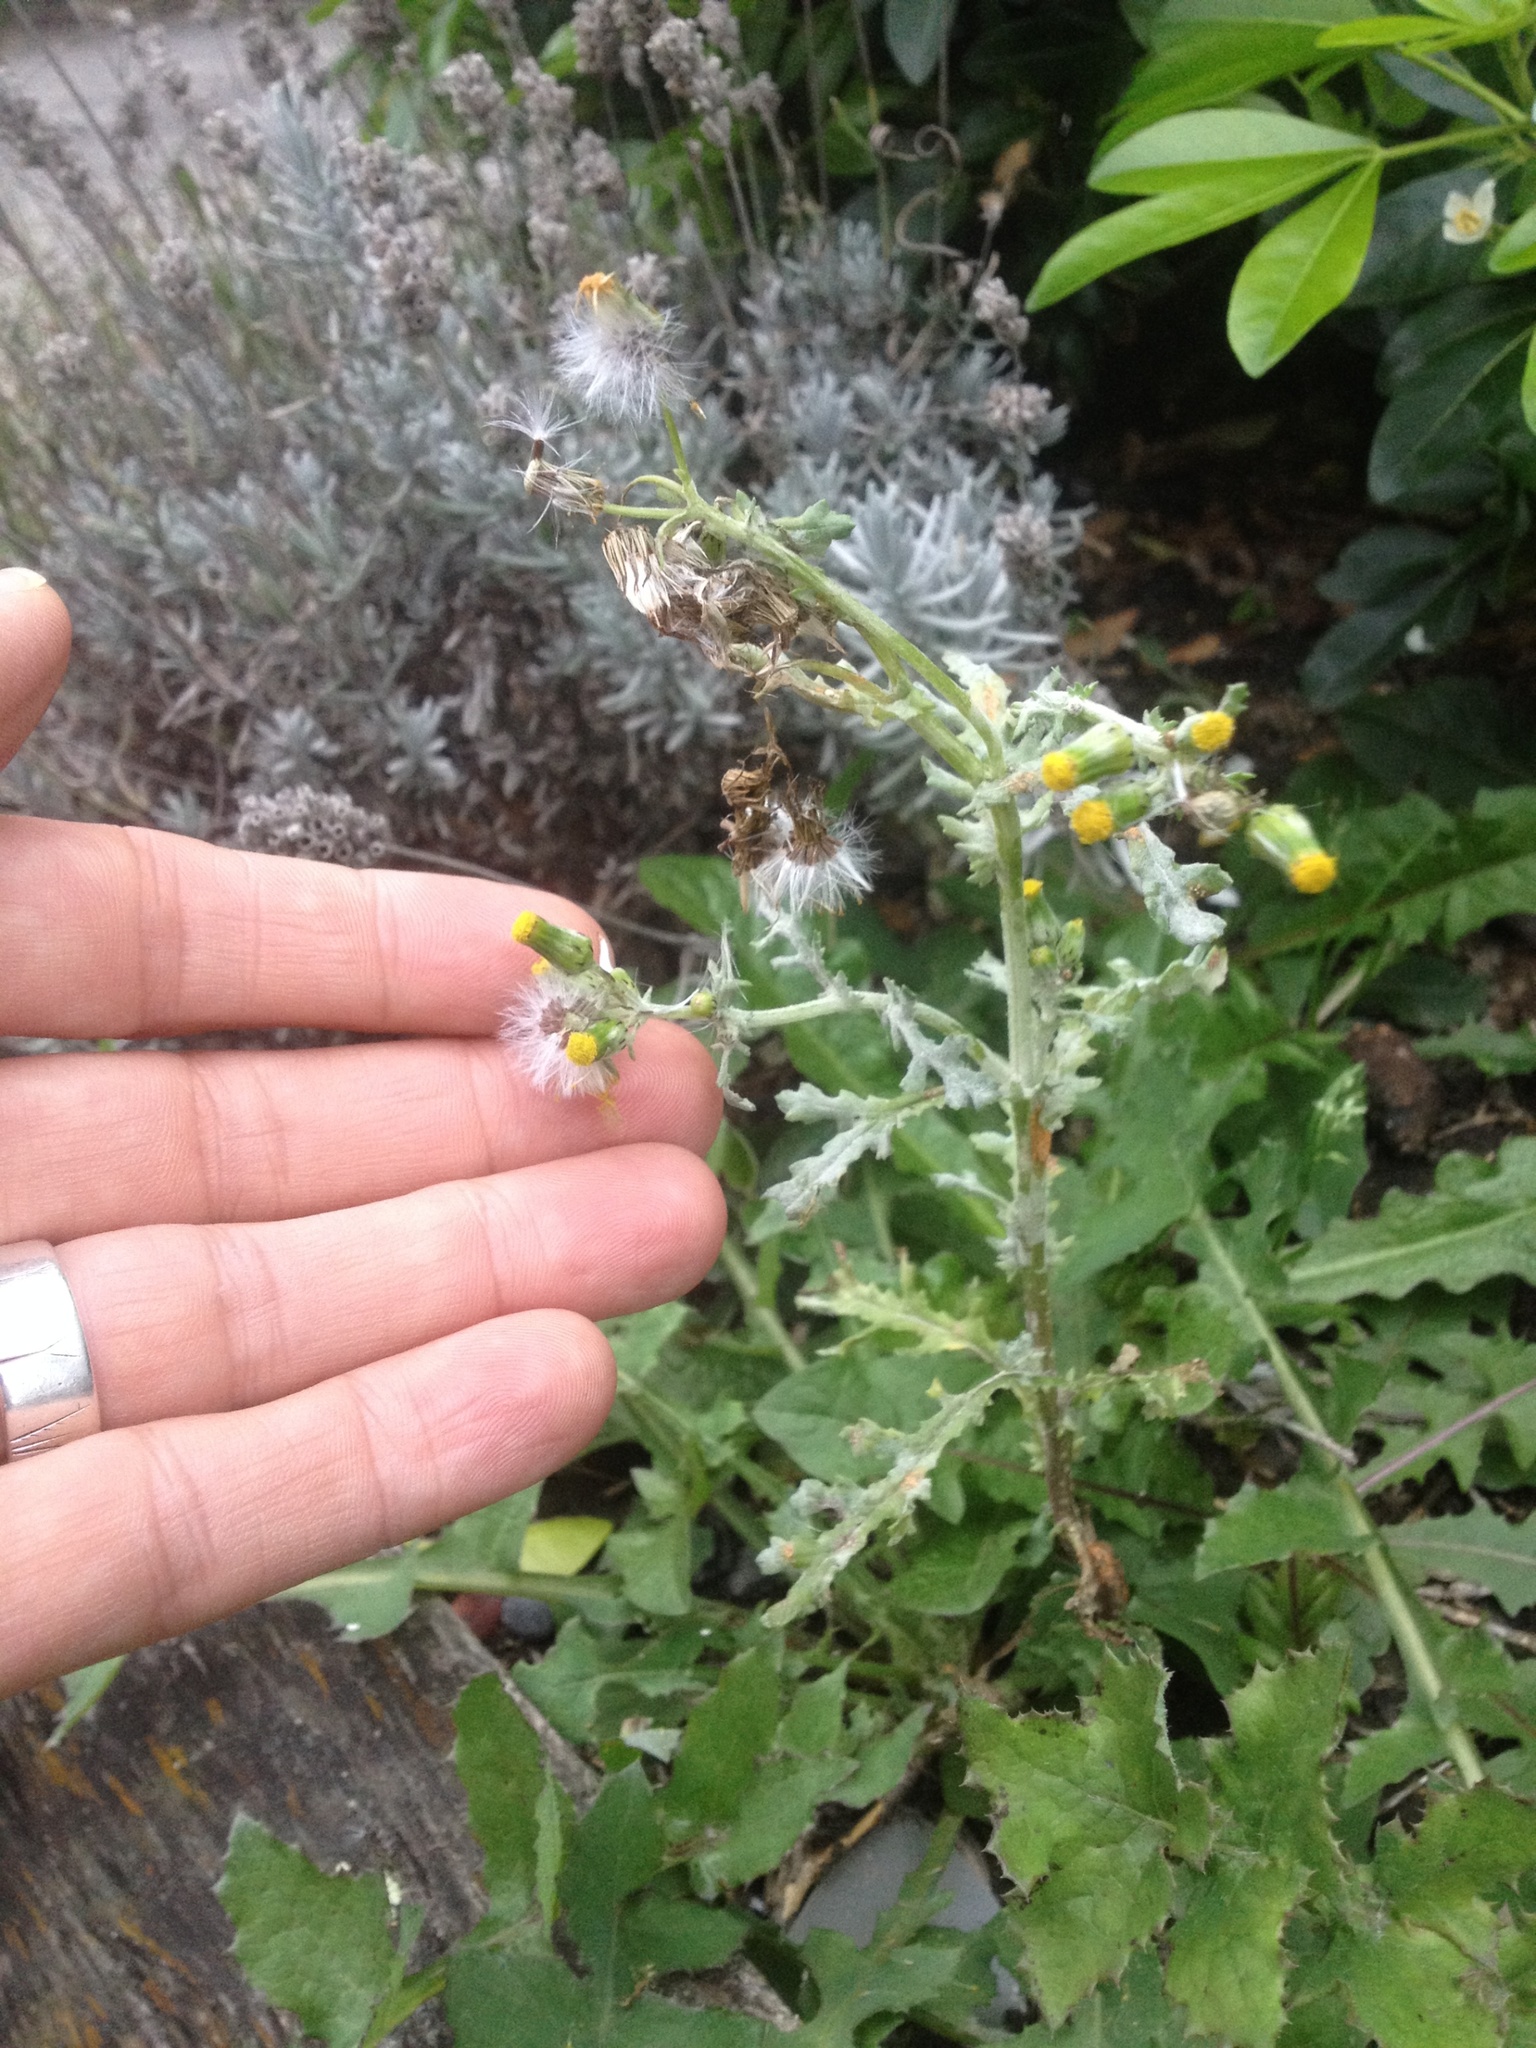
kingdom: Fungi
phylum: Ascomycota
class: Leotiomycetes
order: Helotiales
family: Erysiphaceae
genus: Golovinomyces
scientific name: Golovinomyces fischeri
